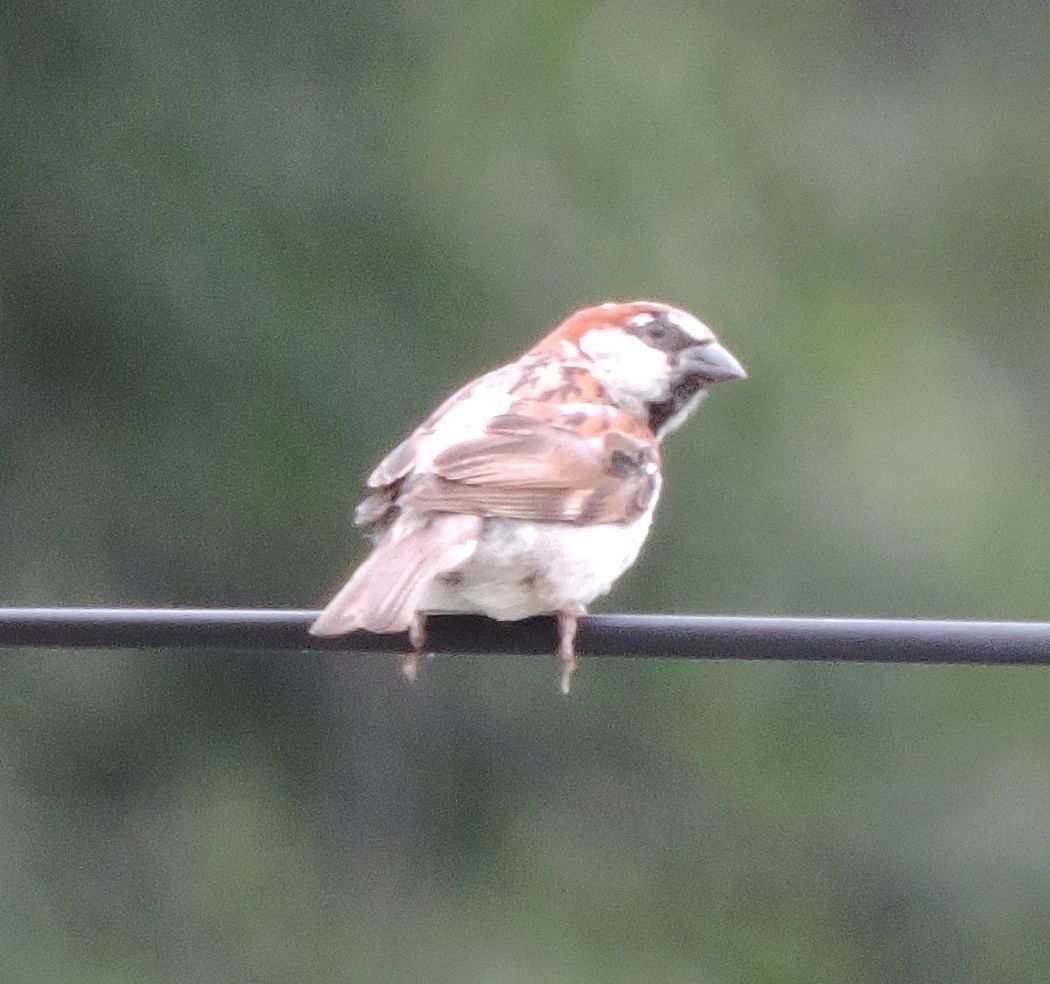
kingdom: Animalia
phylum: Chordata
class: Aves
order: Passeriformes
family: Passeridae
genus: Passer
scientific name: Passer domesticus
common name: House sparrow
